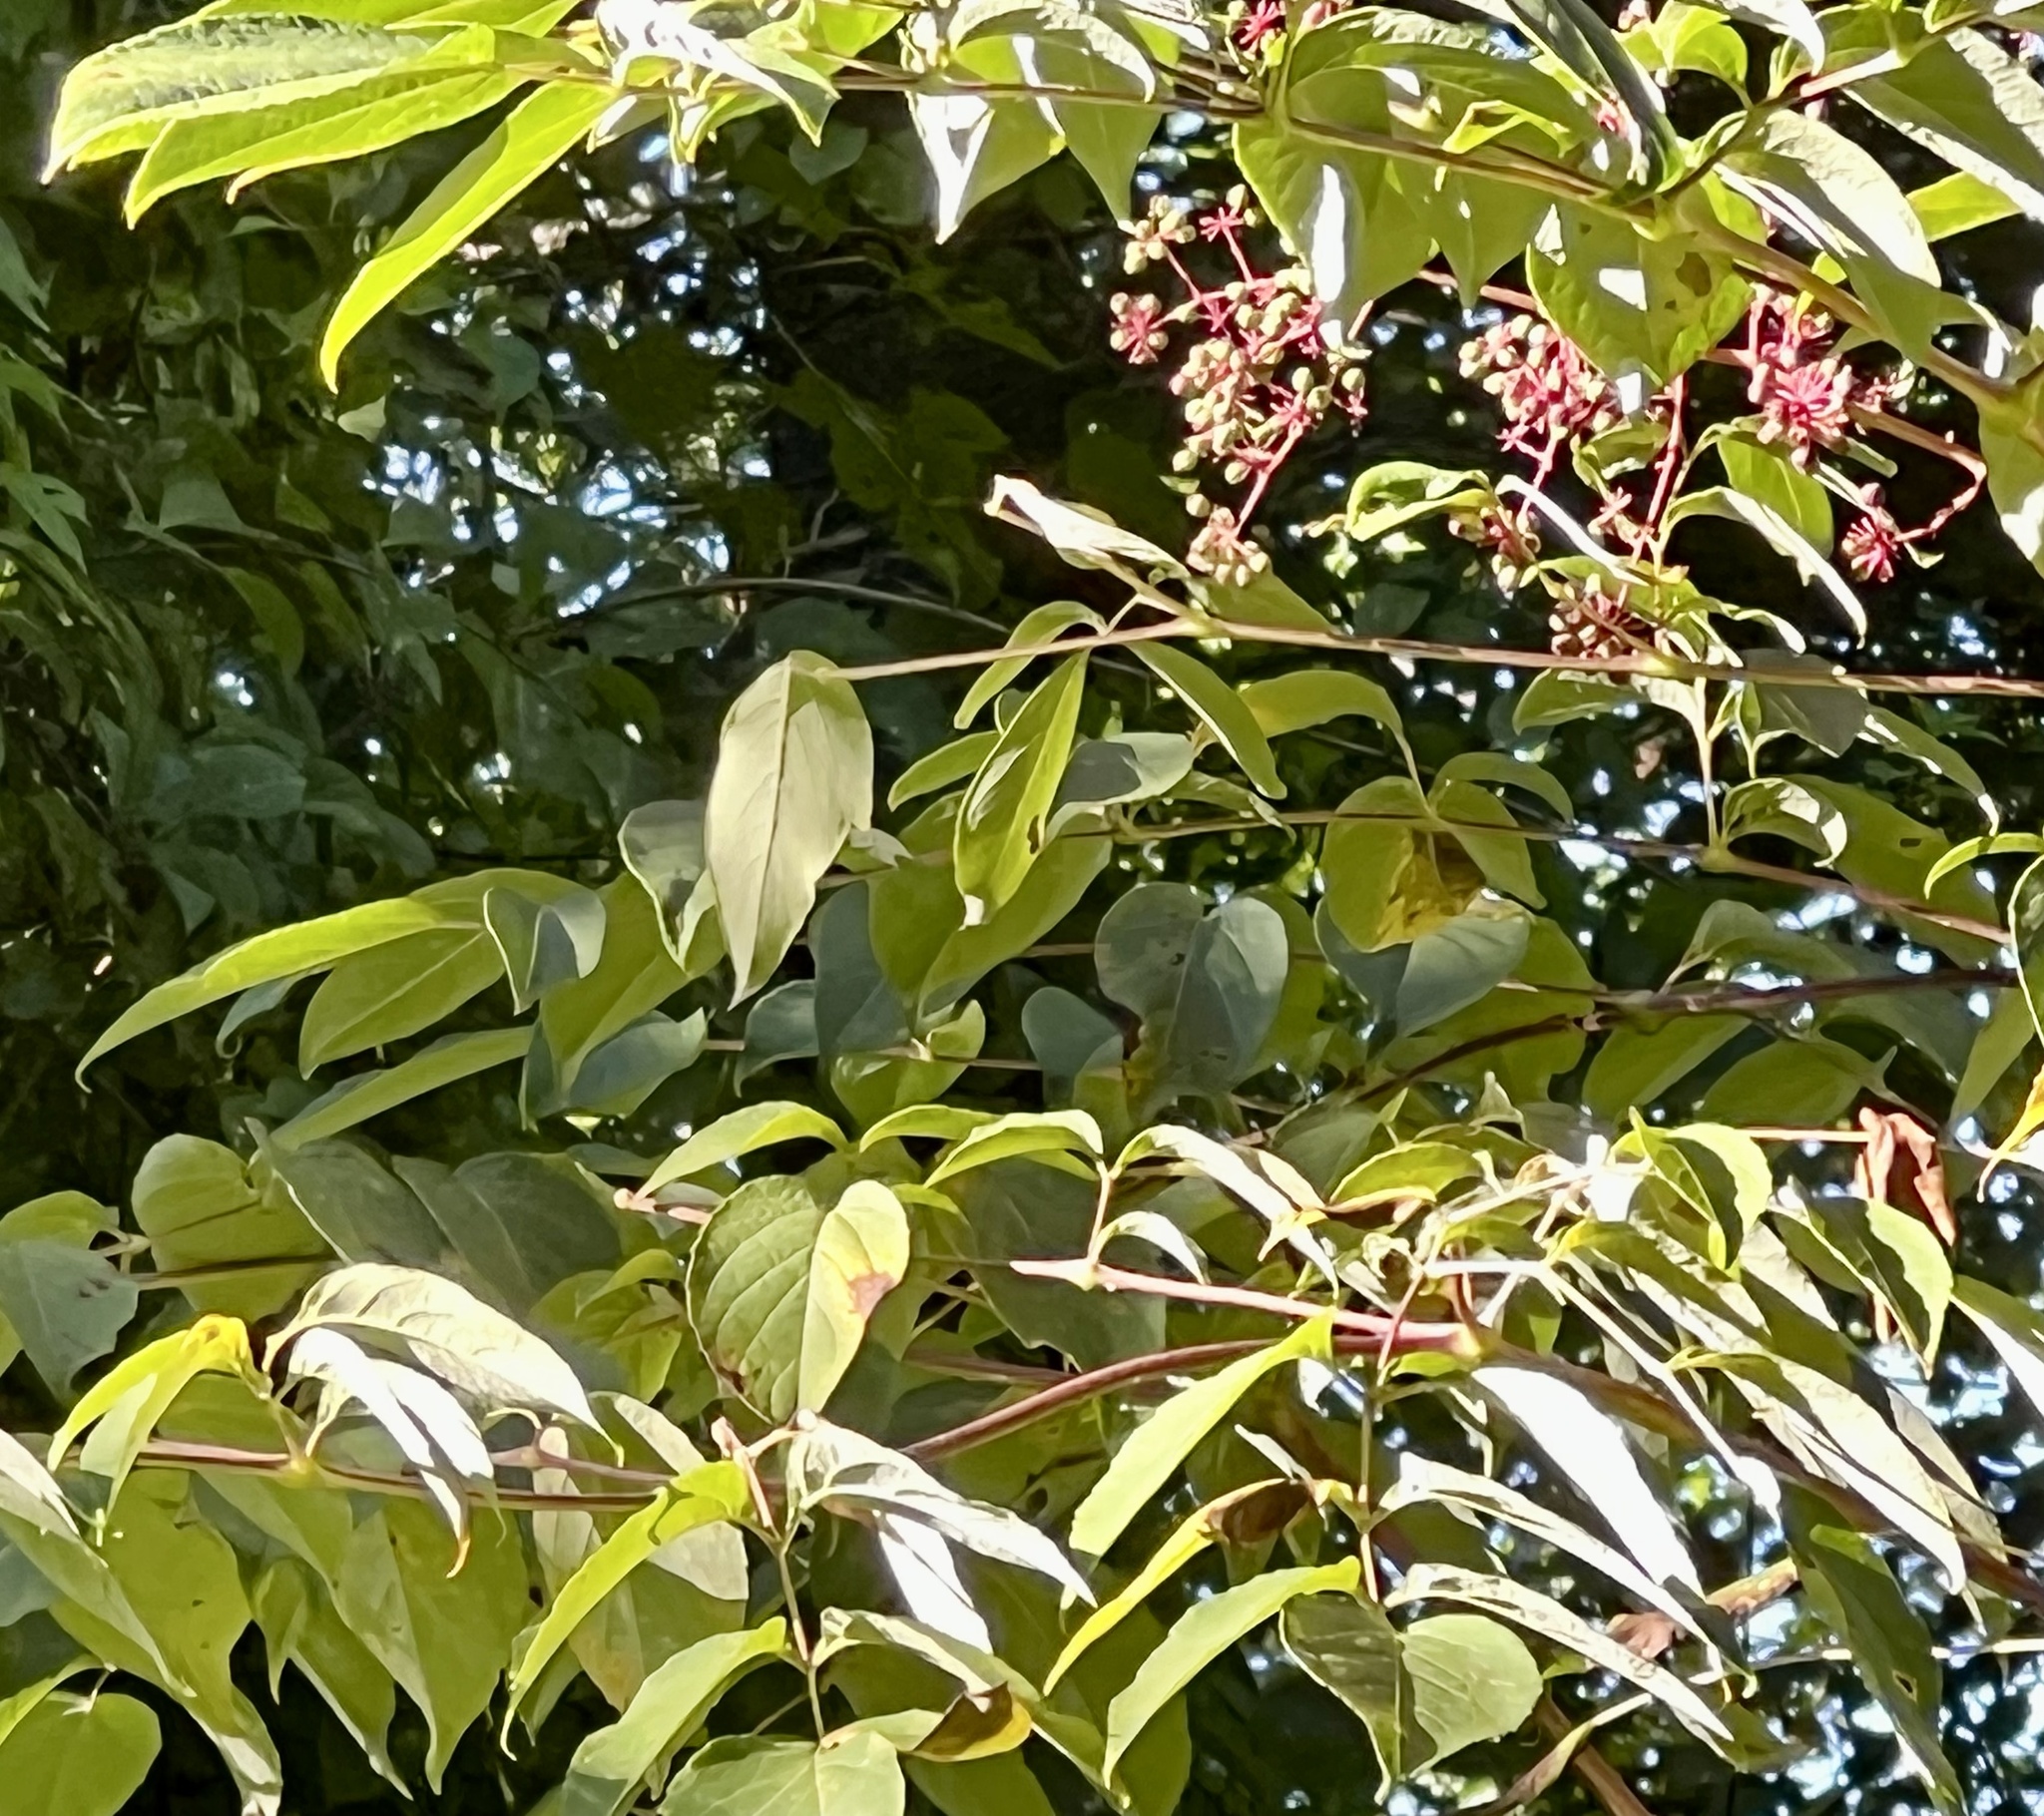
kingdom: Plantae
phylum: Tracheophyta
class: Magnoliopsida
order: Apiales
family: Araliaceae
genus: Aralia
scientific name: Aralia spinosa
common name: Hercules'-club
